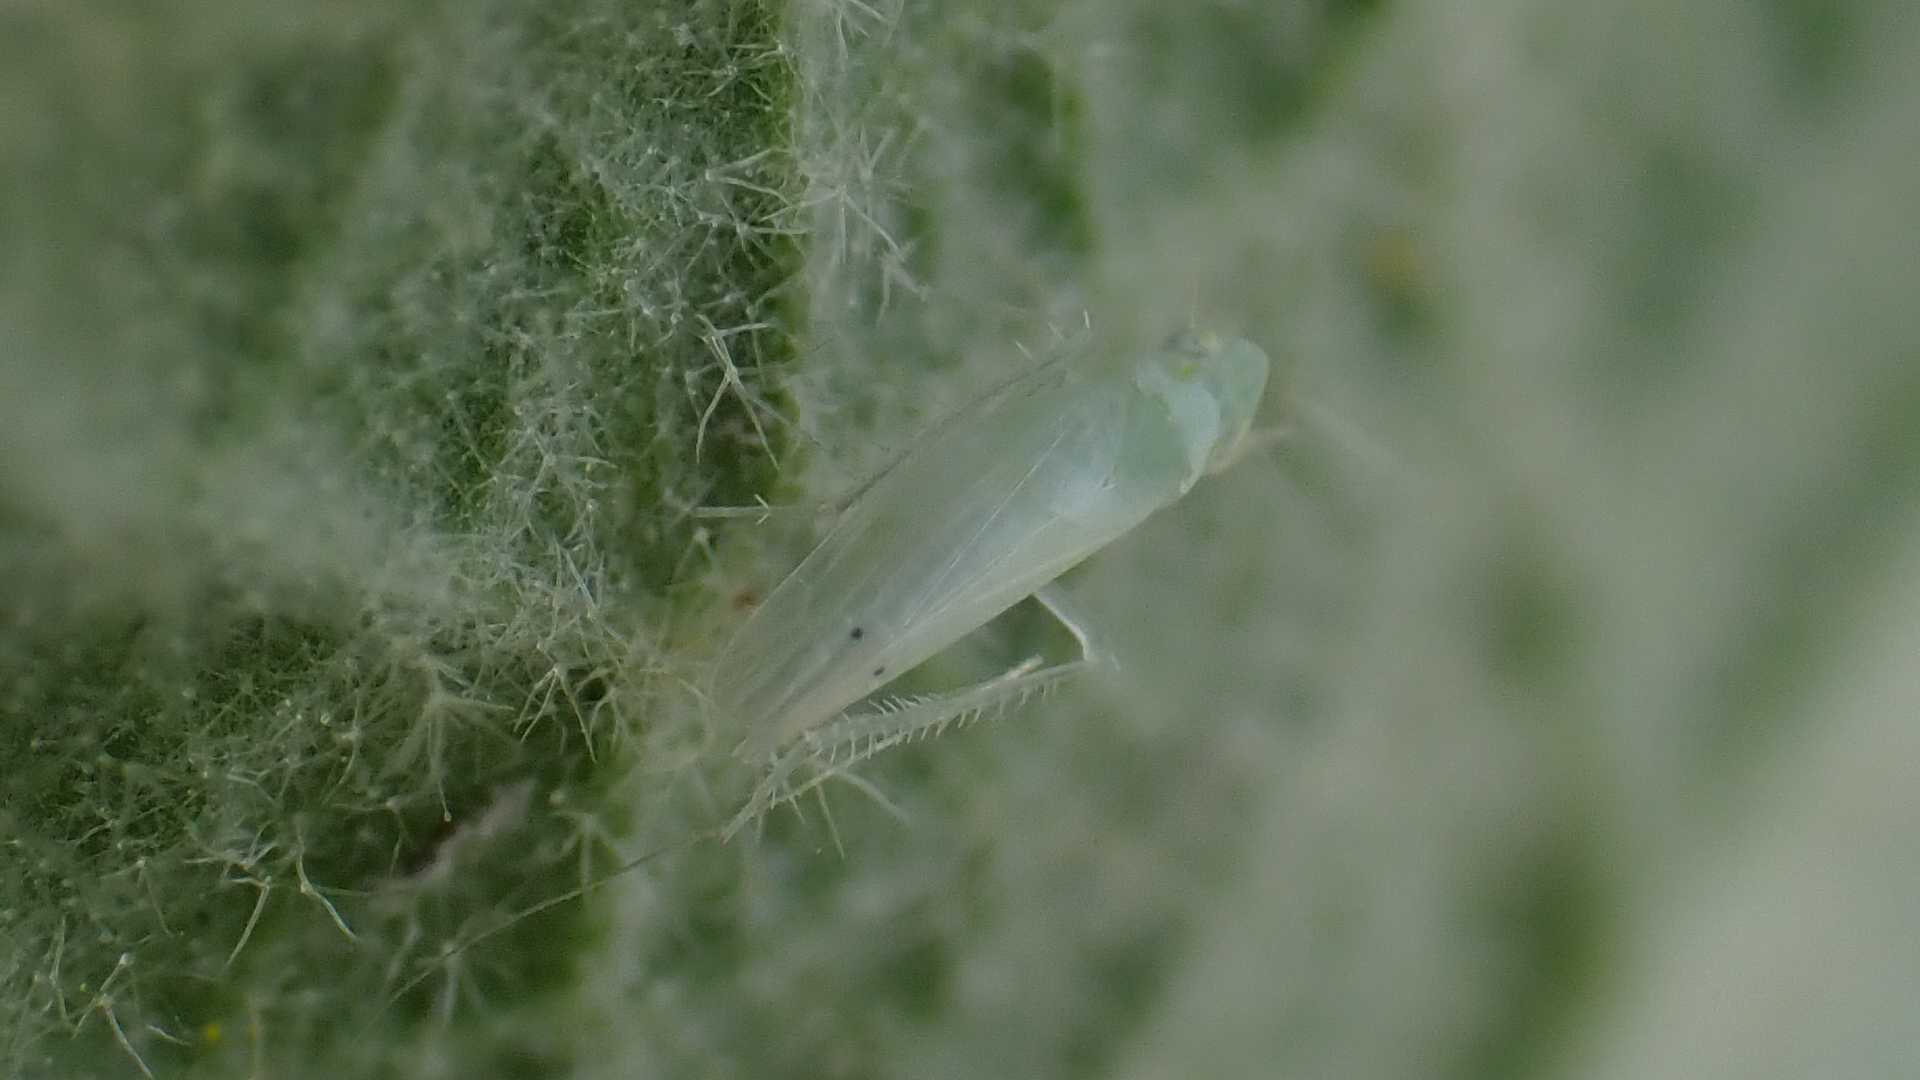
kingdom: Animalia
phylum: Arthropoda
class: Insecta
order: Hemiptera
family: Cicadellidae
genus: Micantulina
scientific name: Micantulina stigmatipennis
